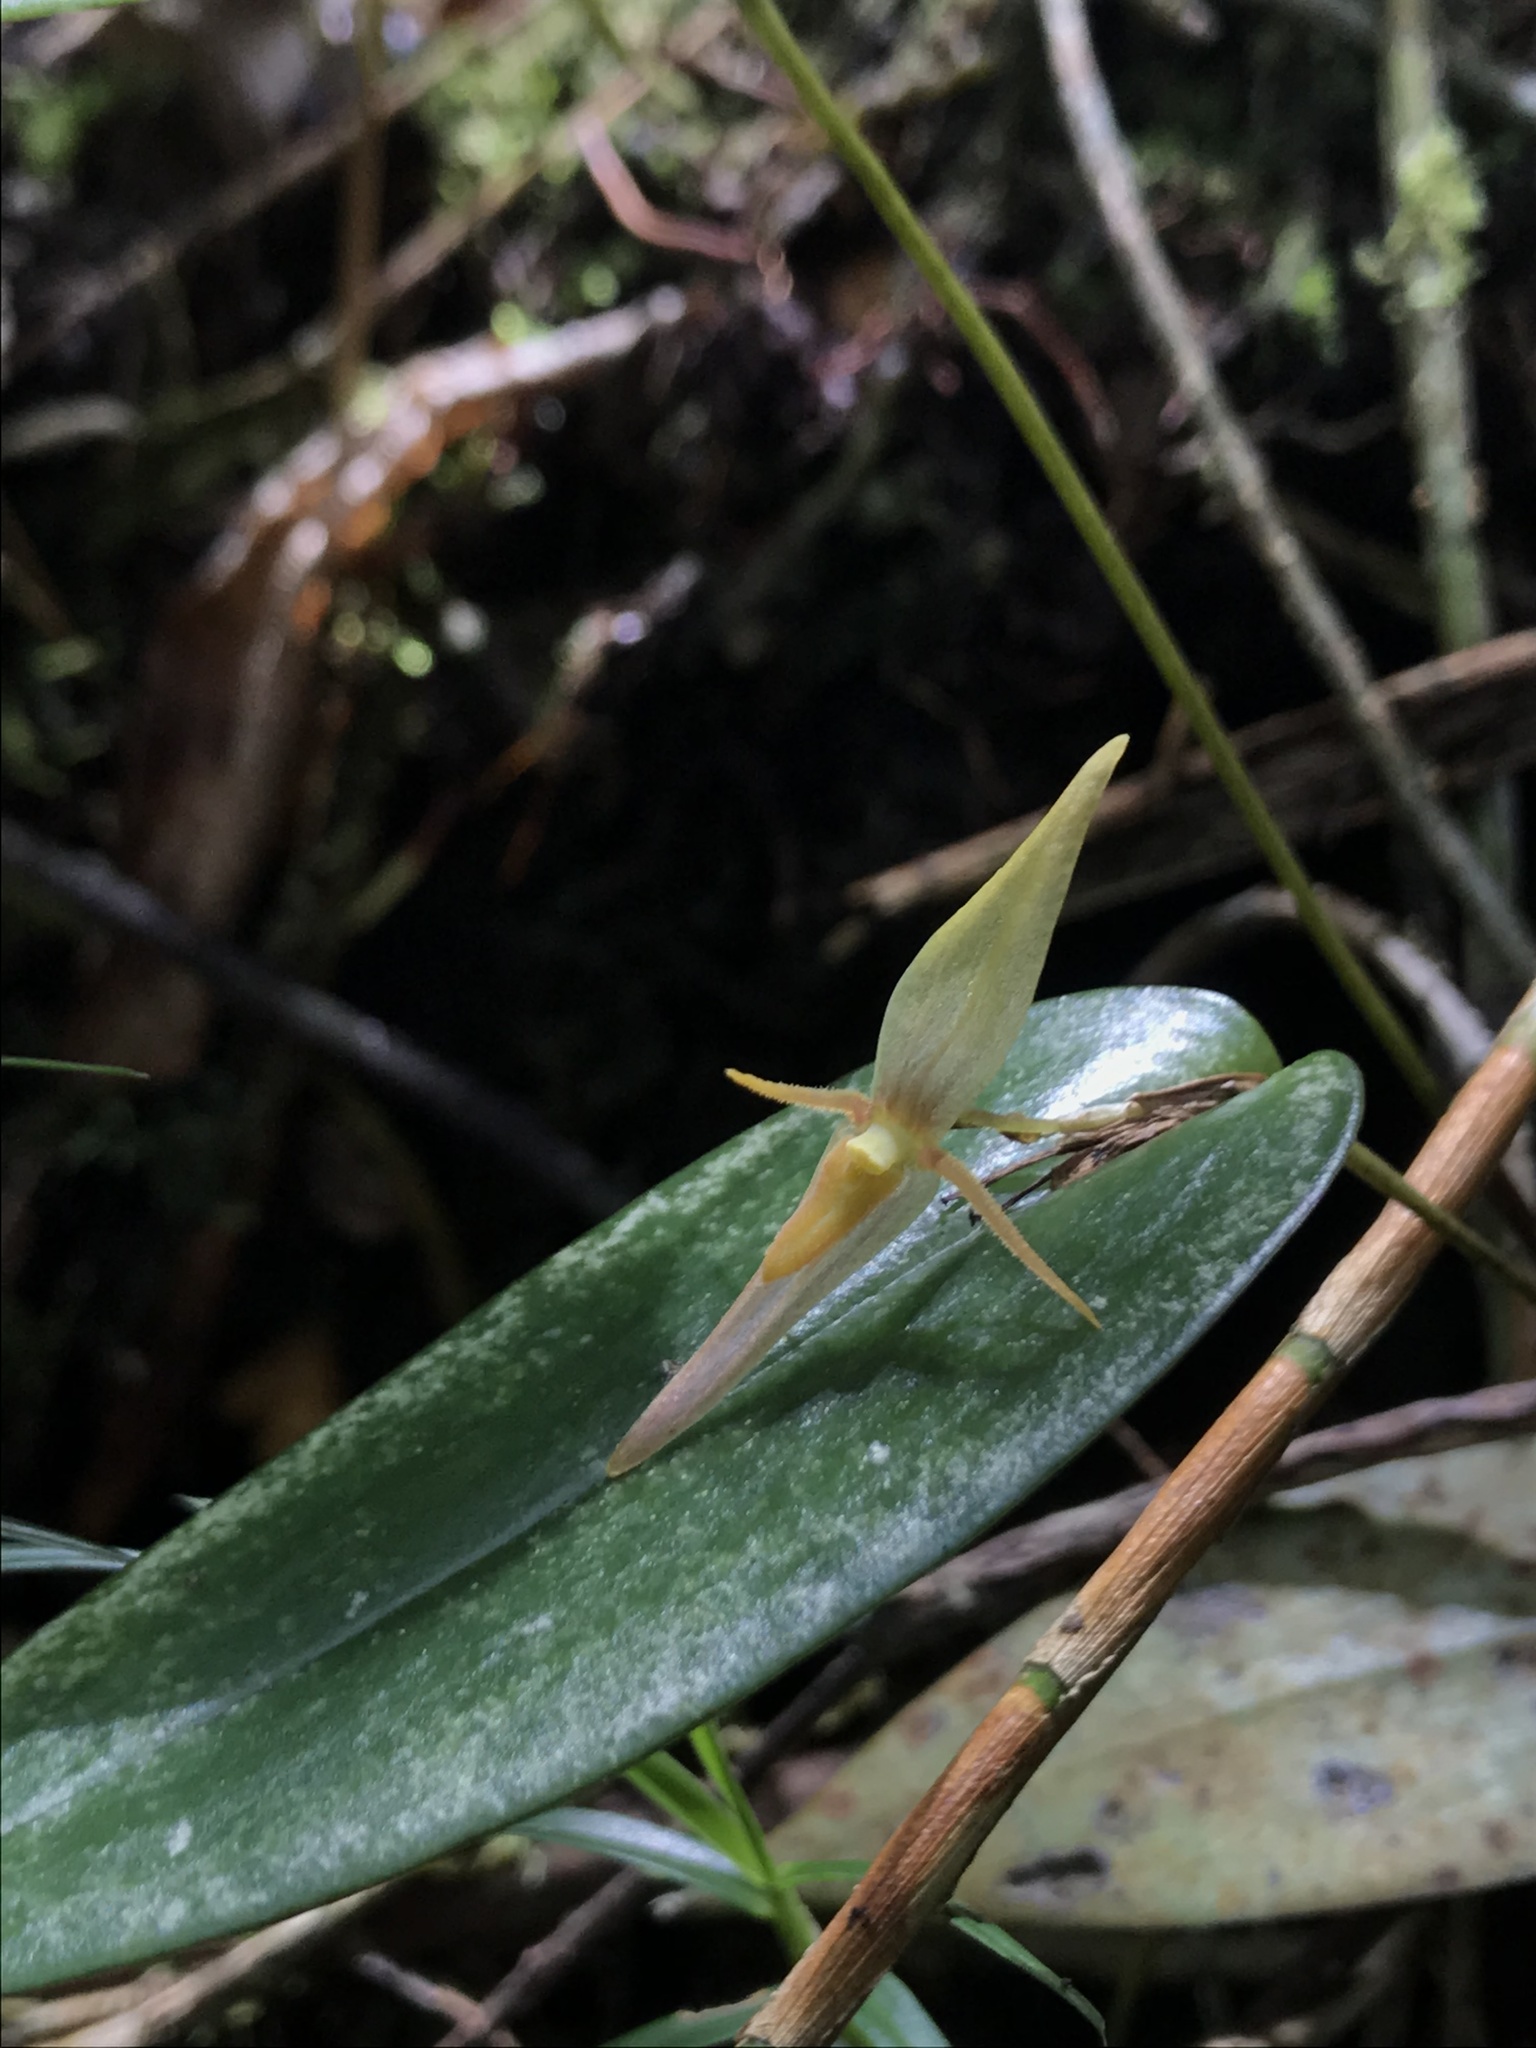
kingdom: Plantae
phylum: Tracheophyta
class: Liliopsida
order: Asparagales
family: Orchidaceae
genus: Pleurothallis
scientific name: Pleurothallis killipii
